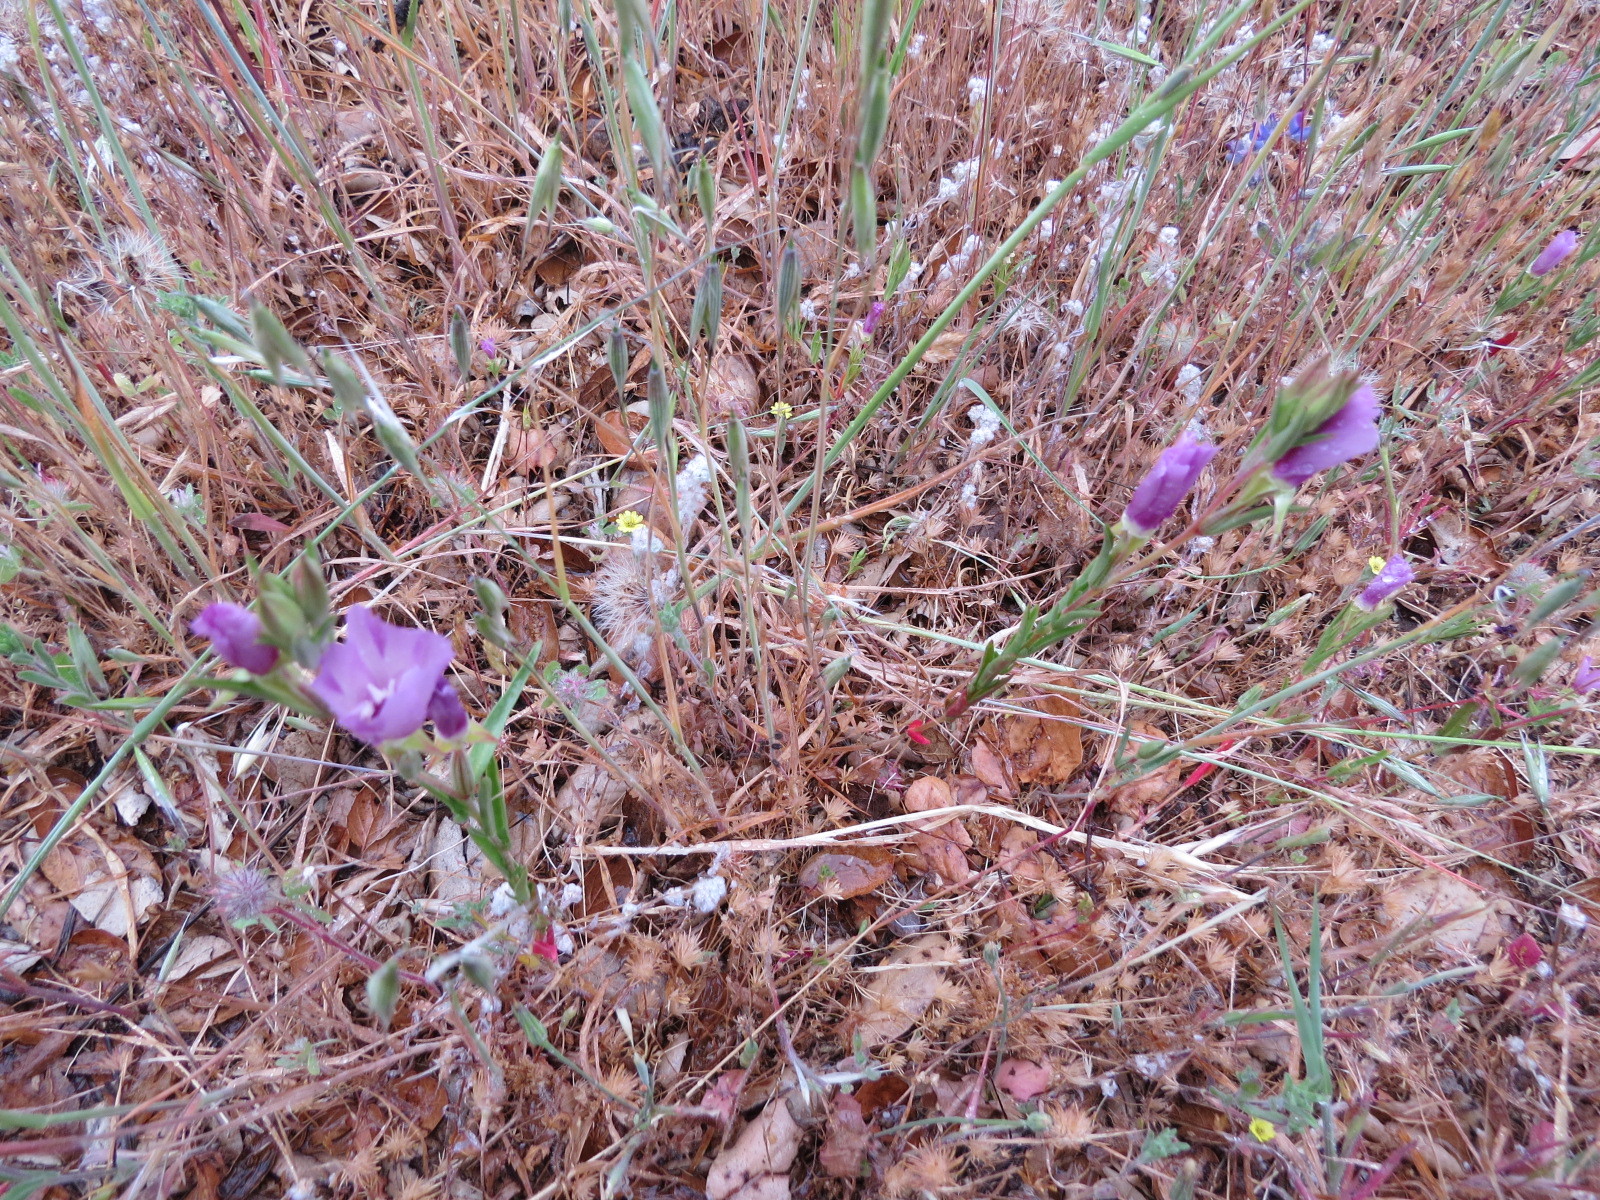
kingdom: Plantae
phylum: Tracheophyta
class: Magnoliopsida
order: Myrtales
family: Onagraceae
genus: Clarkia
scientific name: Clarkia purpurea
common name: Purple clarkia
